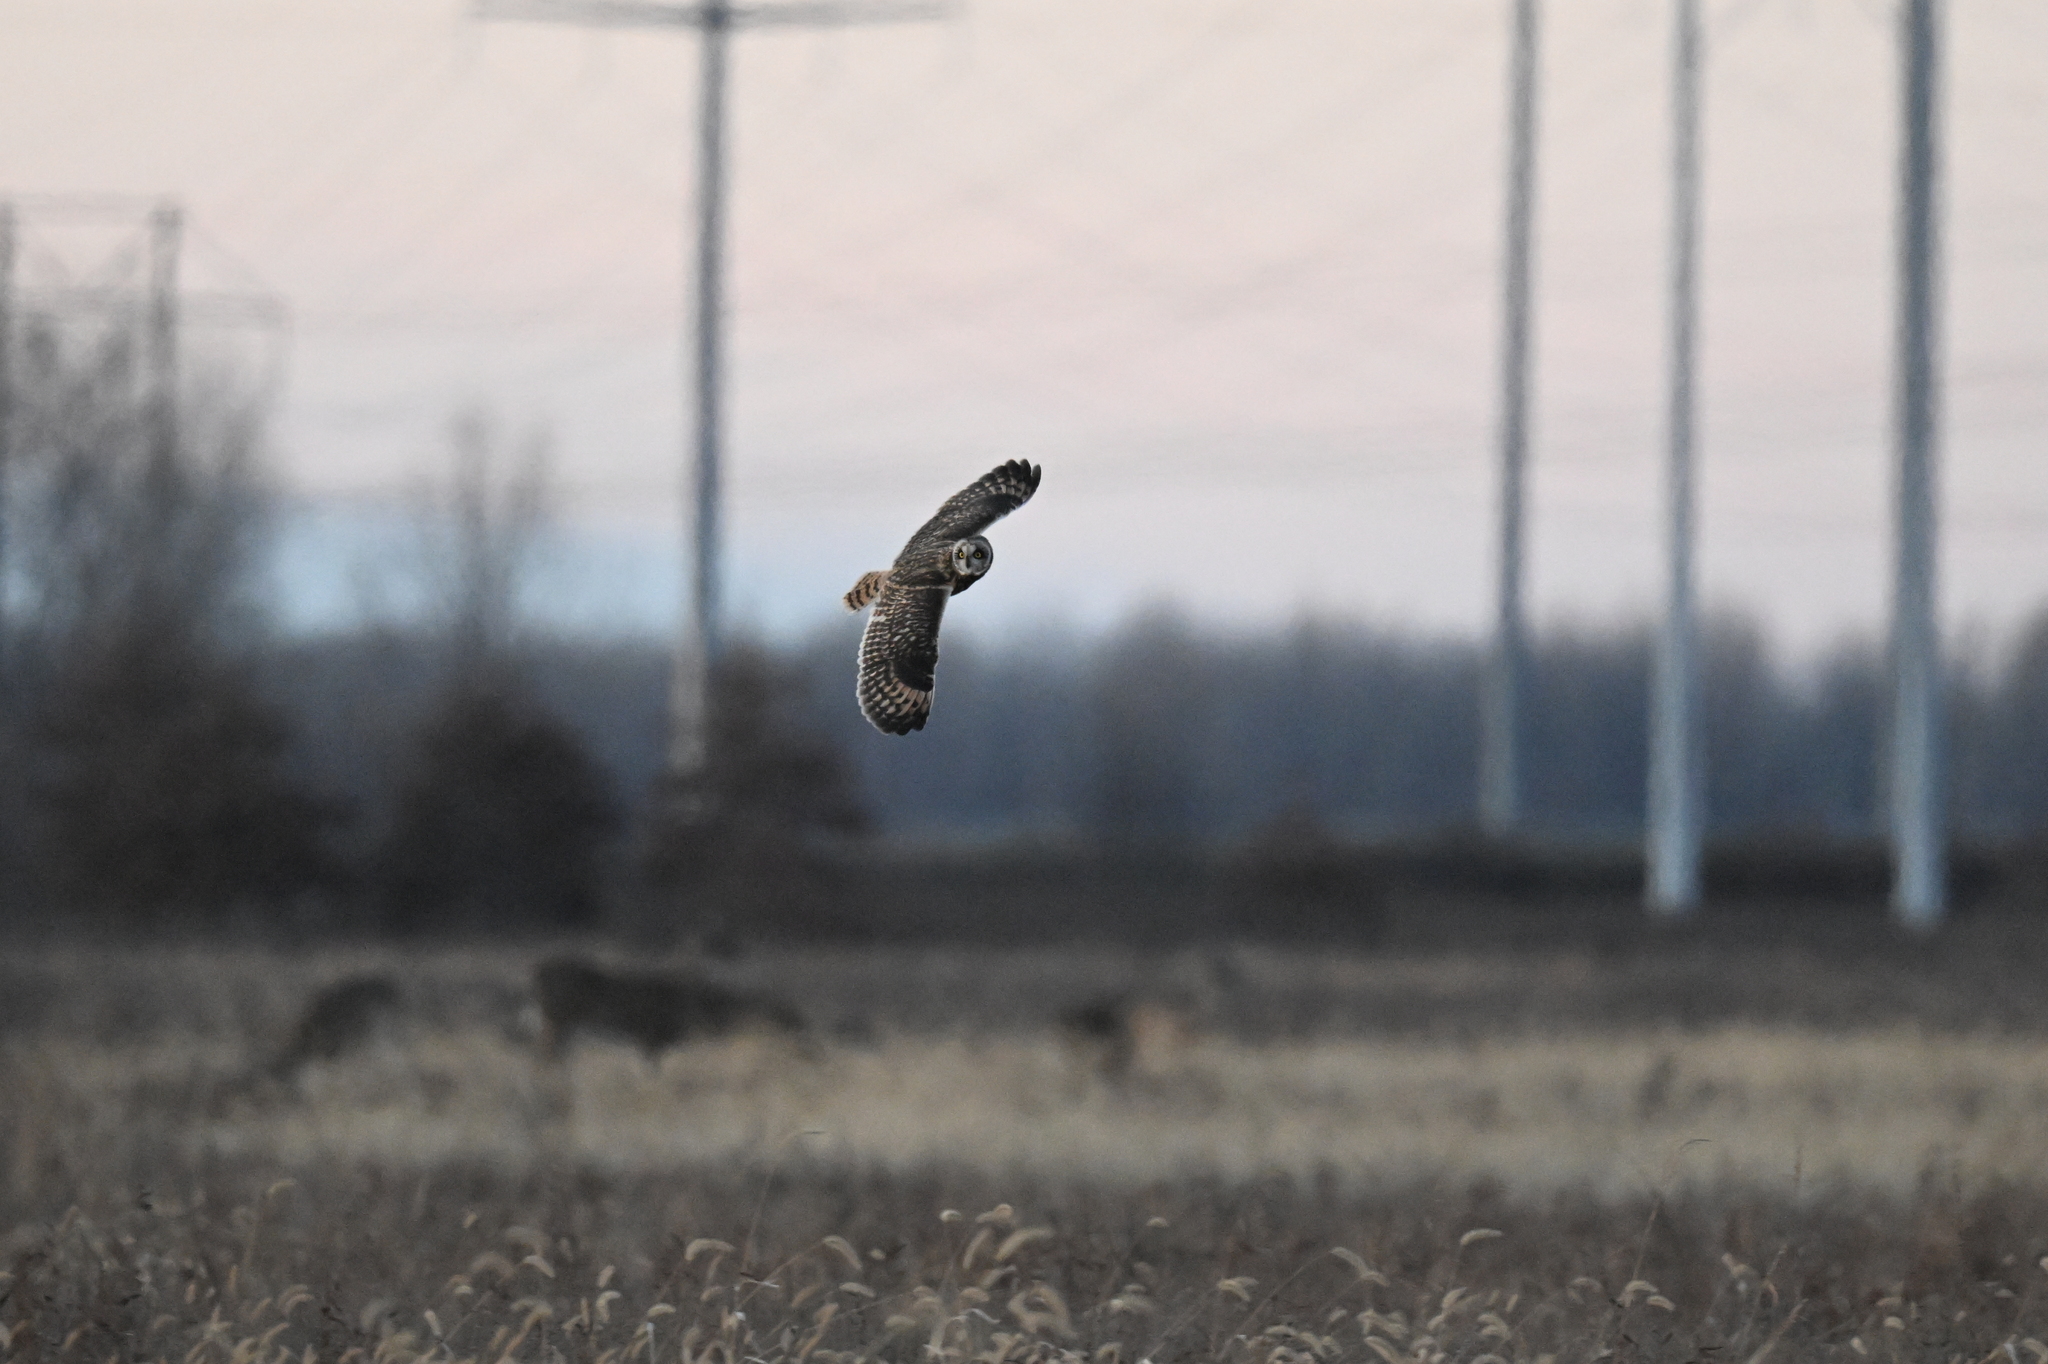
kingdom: Animalia
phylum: Chordata
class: Aves
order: Strigiformes
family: Strigidae
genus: Asio
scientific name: Asio flammeus
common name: Short-eared owl
